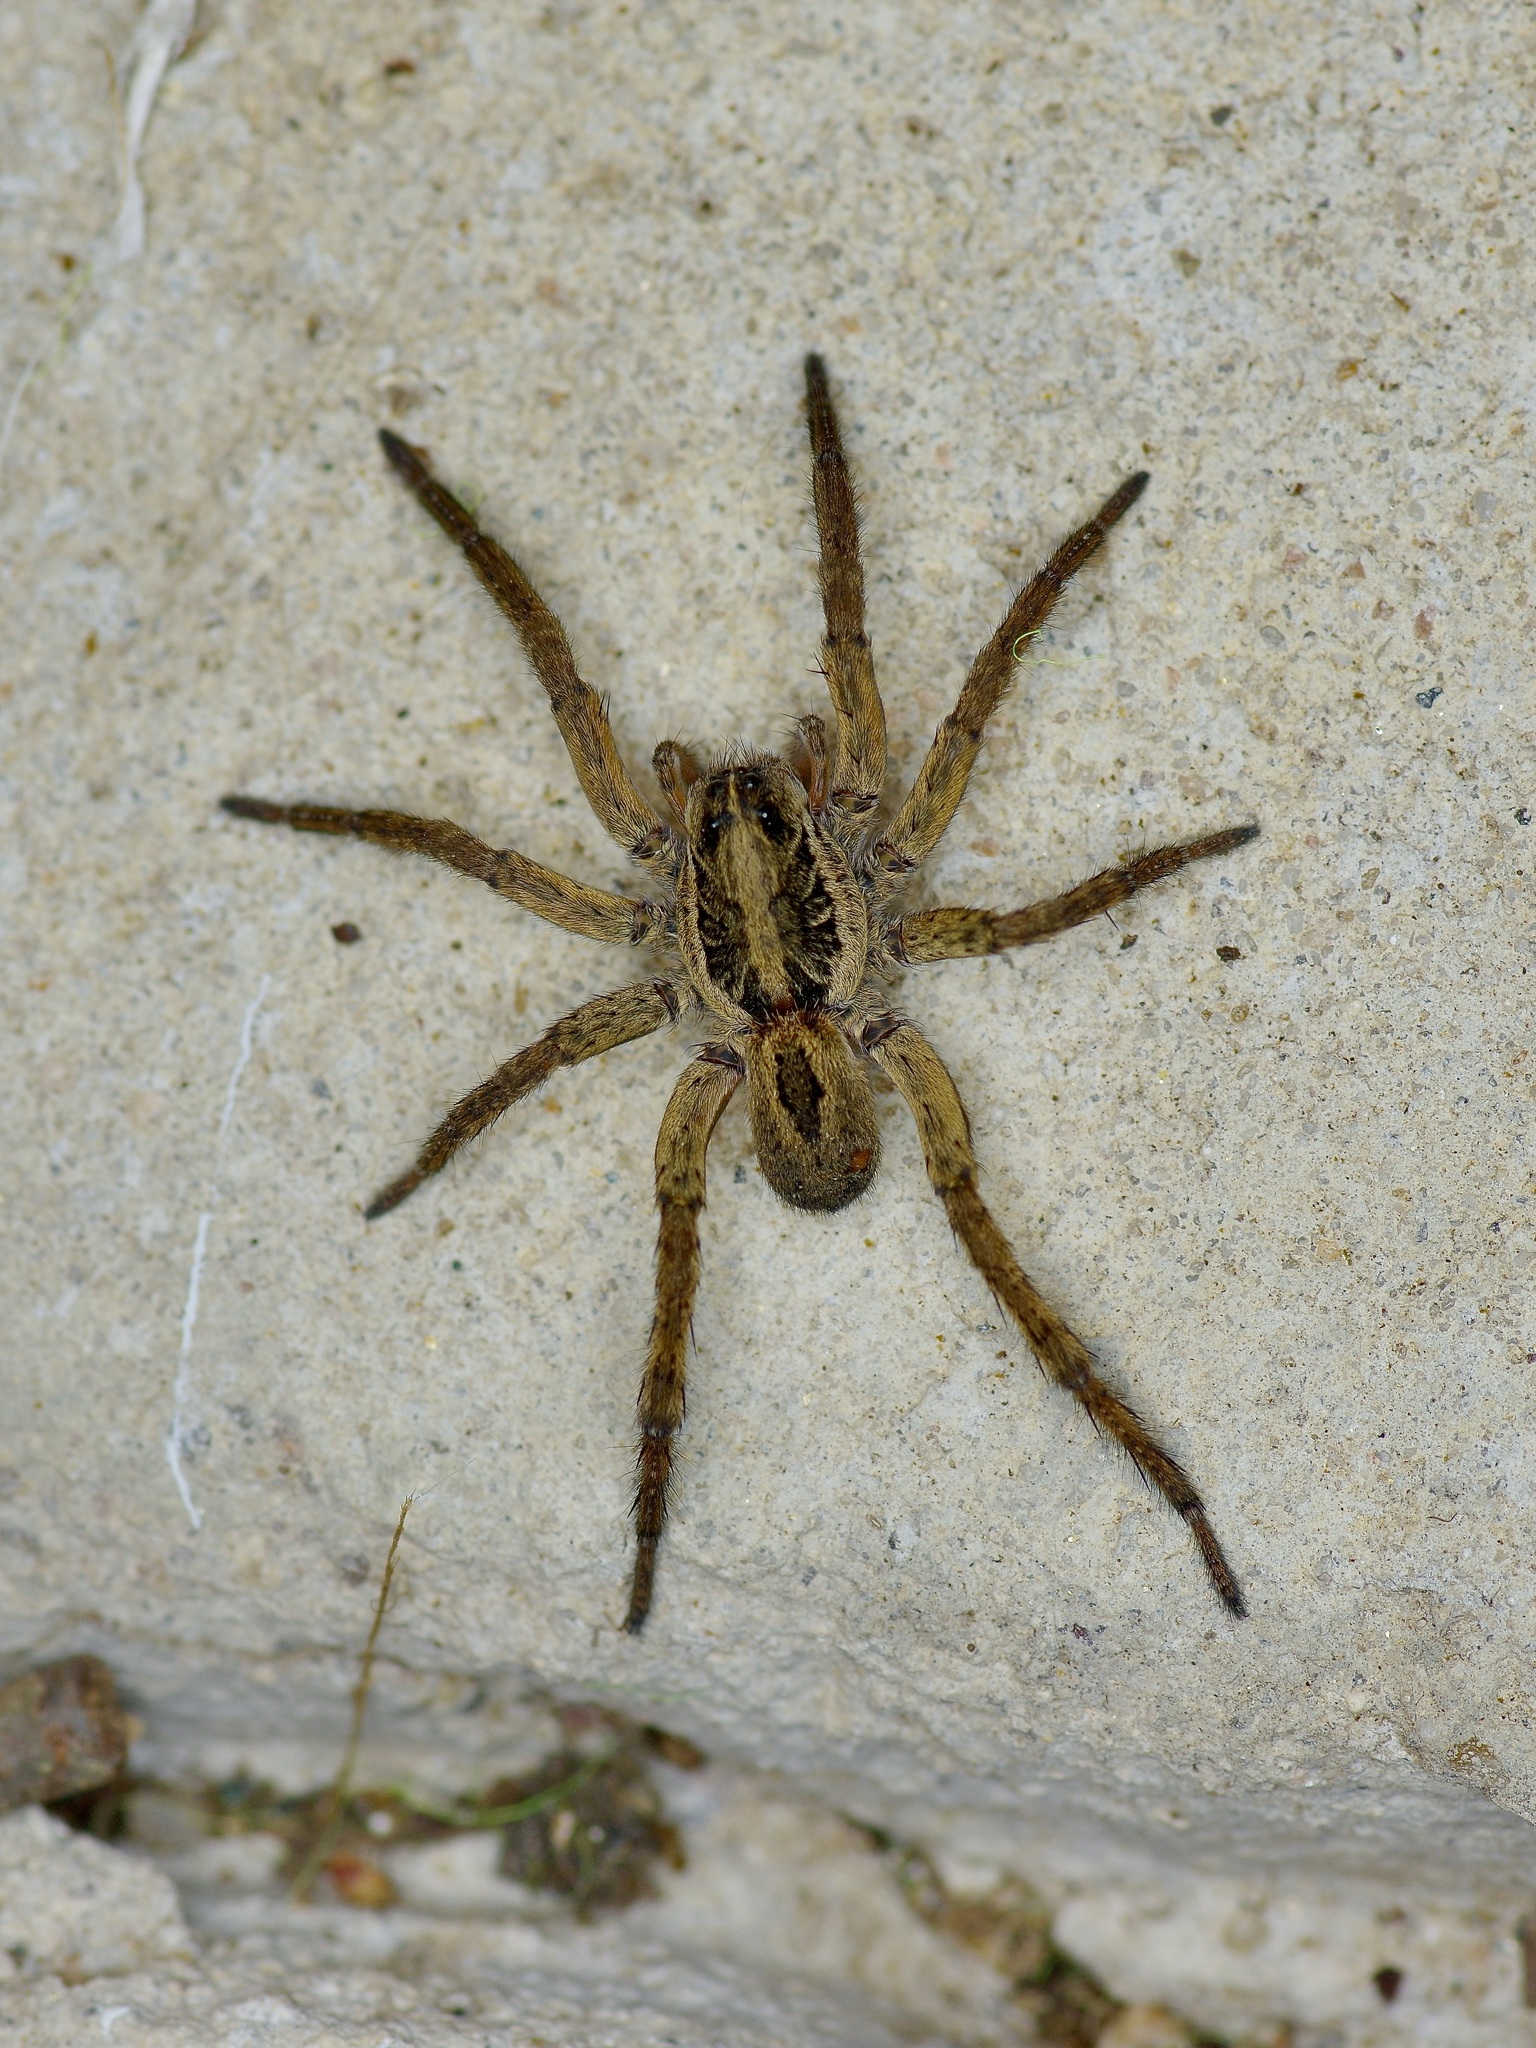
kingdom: Animalia
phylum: Arthropoda
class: Arachnida
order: Araneae
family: Lycosidae
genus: Tigrosa
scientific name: Tigrosa annexa
